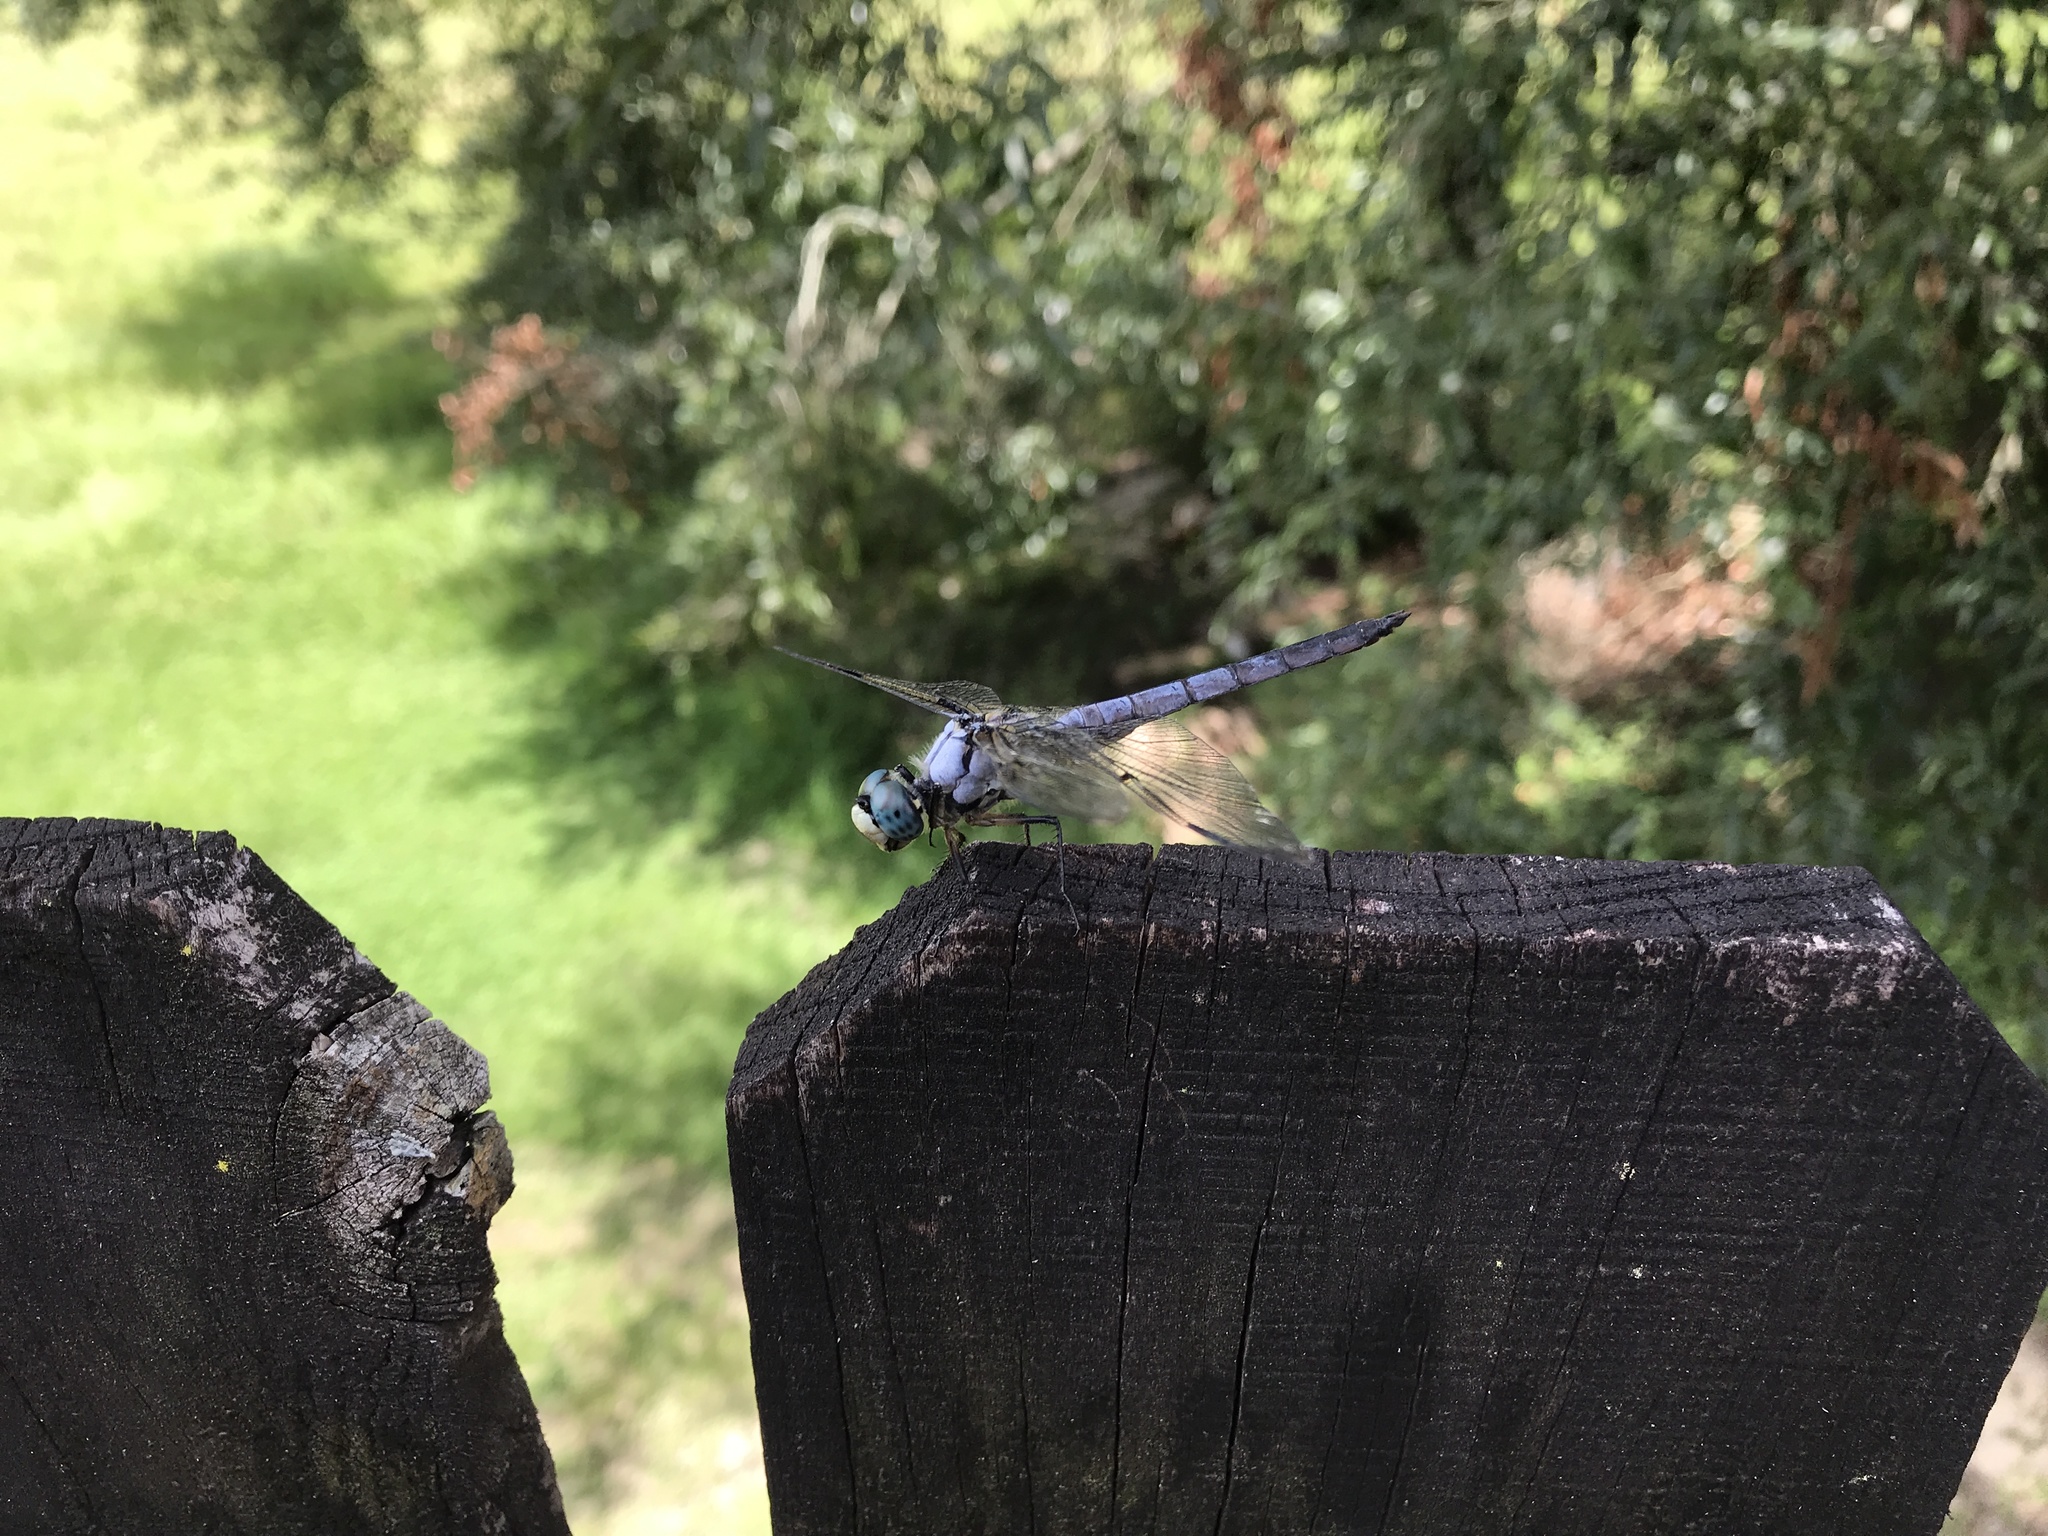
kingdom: Animalia
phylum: Arthropoda
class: Insecta
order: Odonata
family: Libellulidae
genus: Libellula
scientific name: Libellula vibrans
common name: Great blue skimmer
